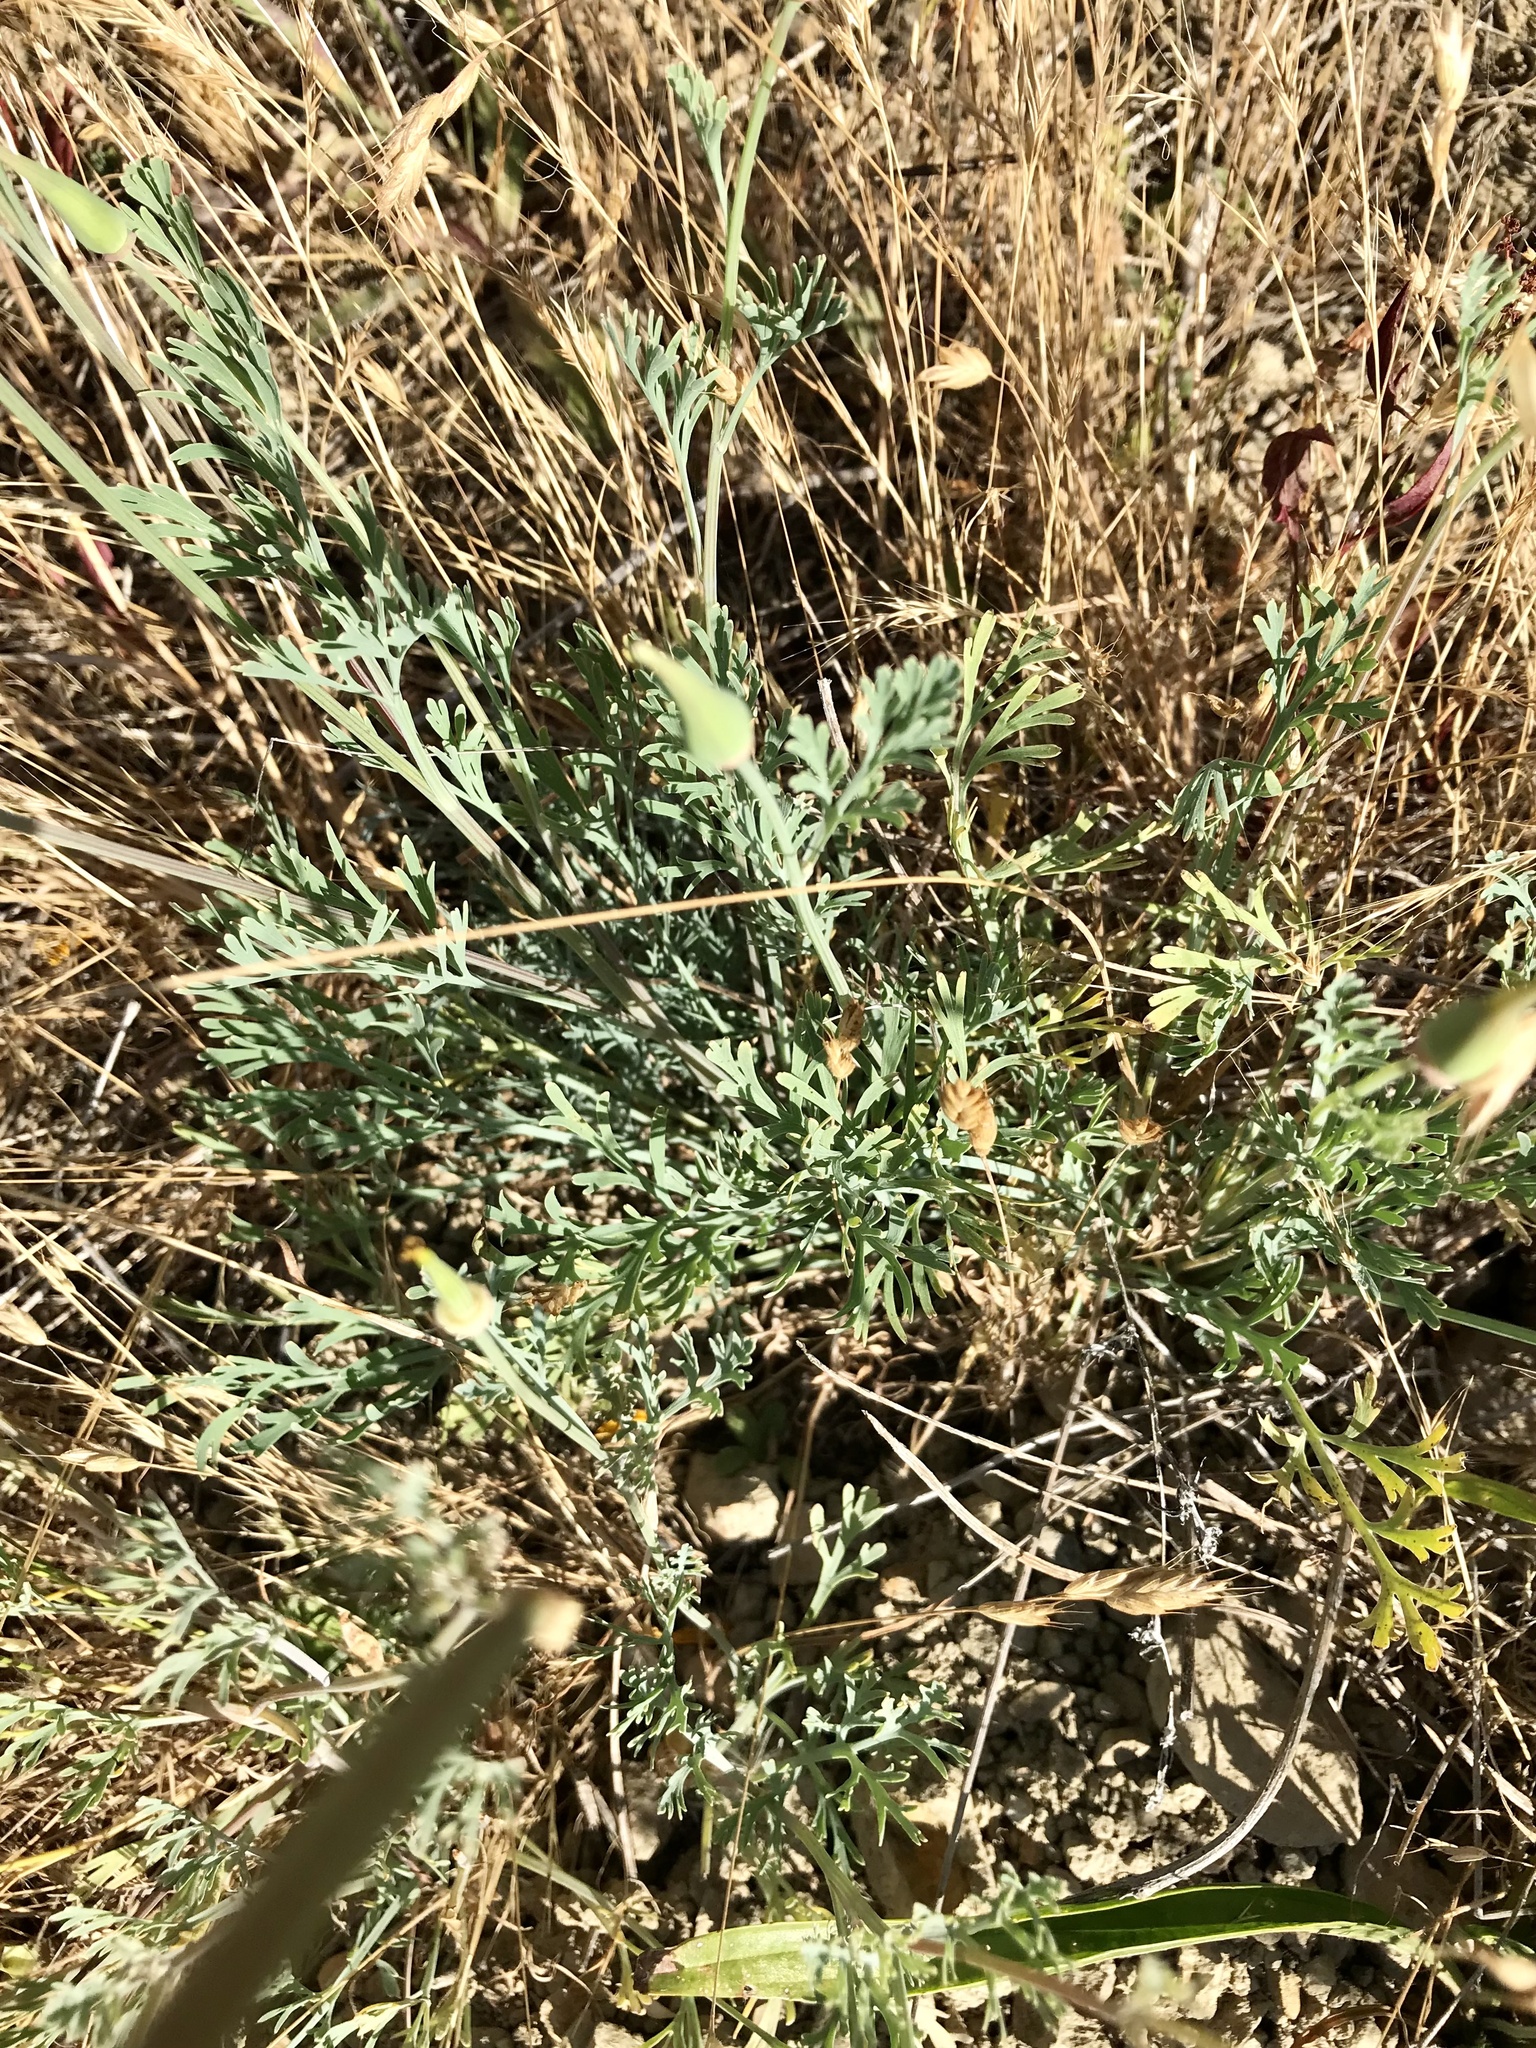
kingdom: Plantae
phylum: Tracheophyta
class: Magnoliopsida
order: Ranunculales
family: Papaveraceae
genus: Eschscholzia
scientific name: Eschscholzia californica
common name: California poppy
